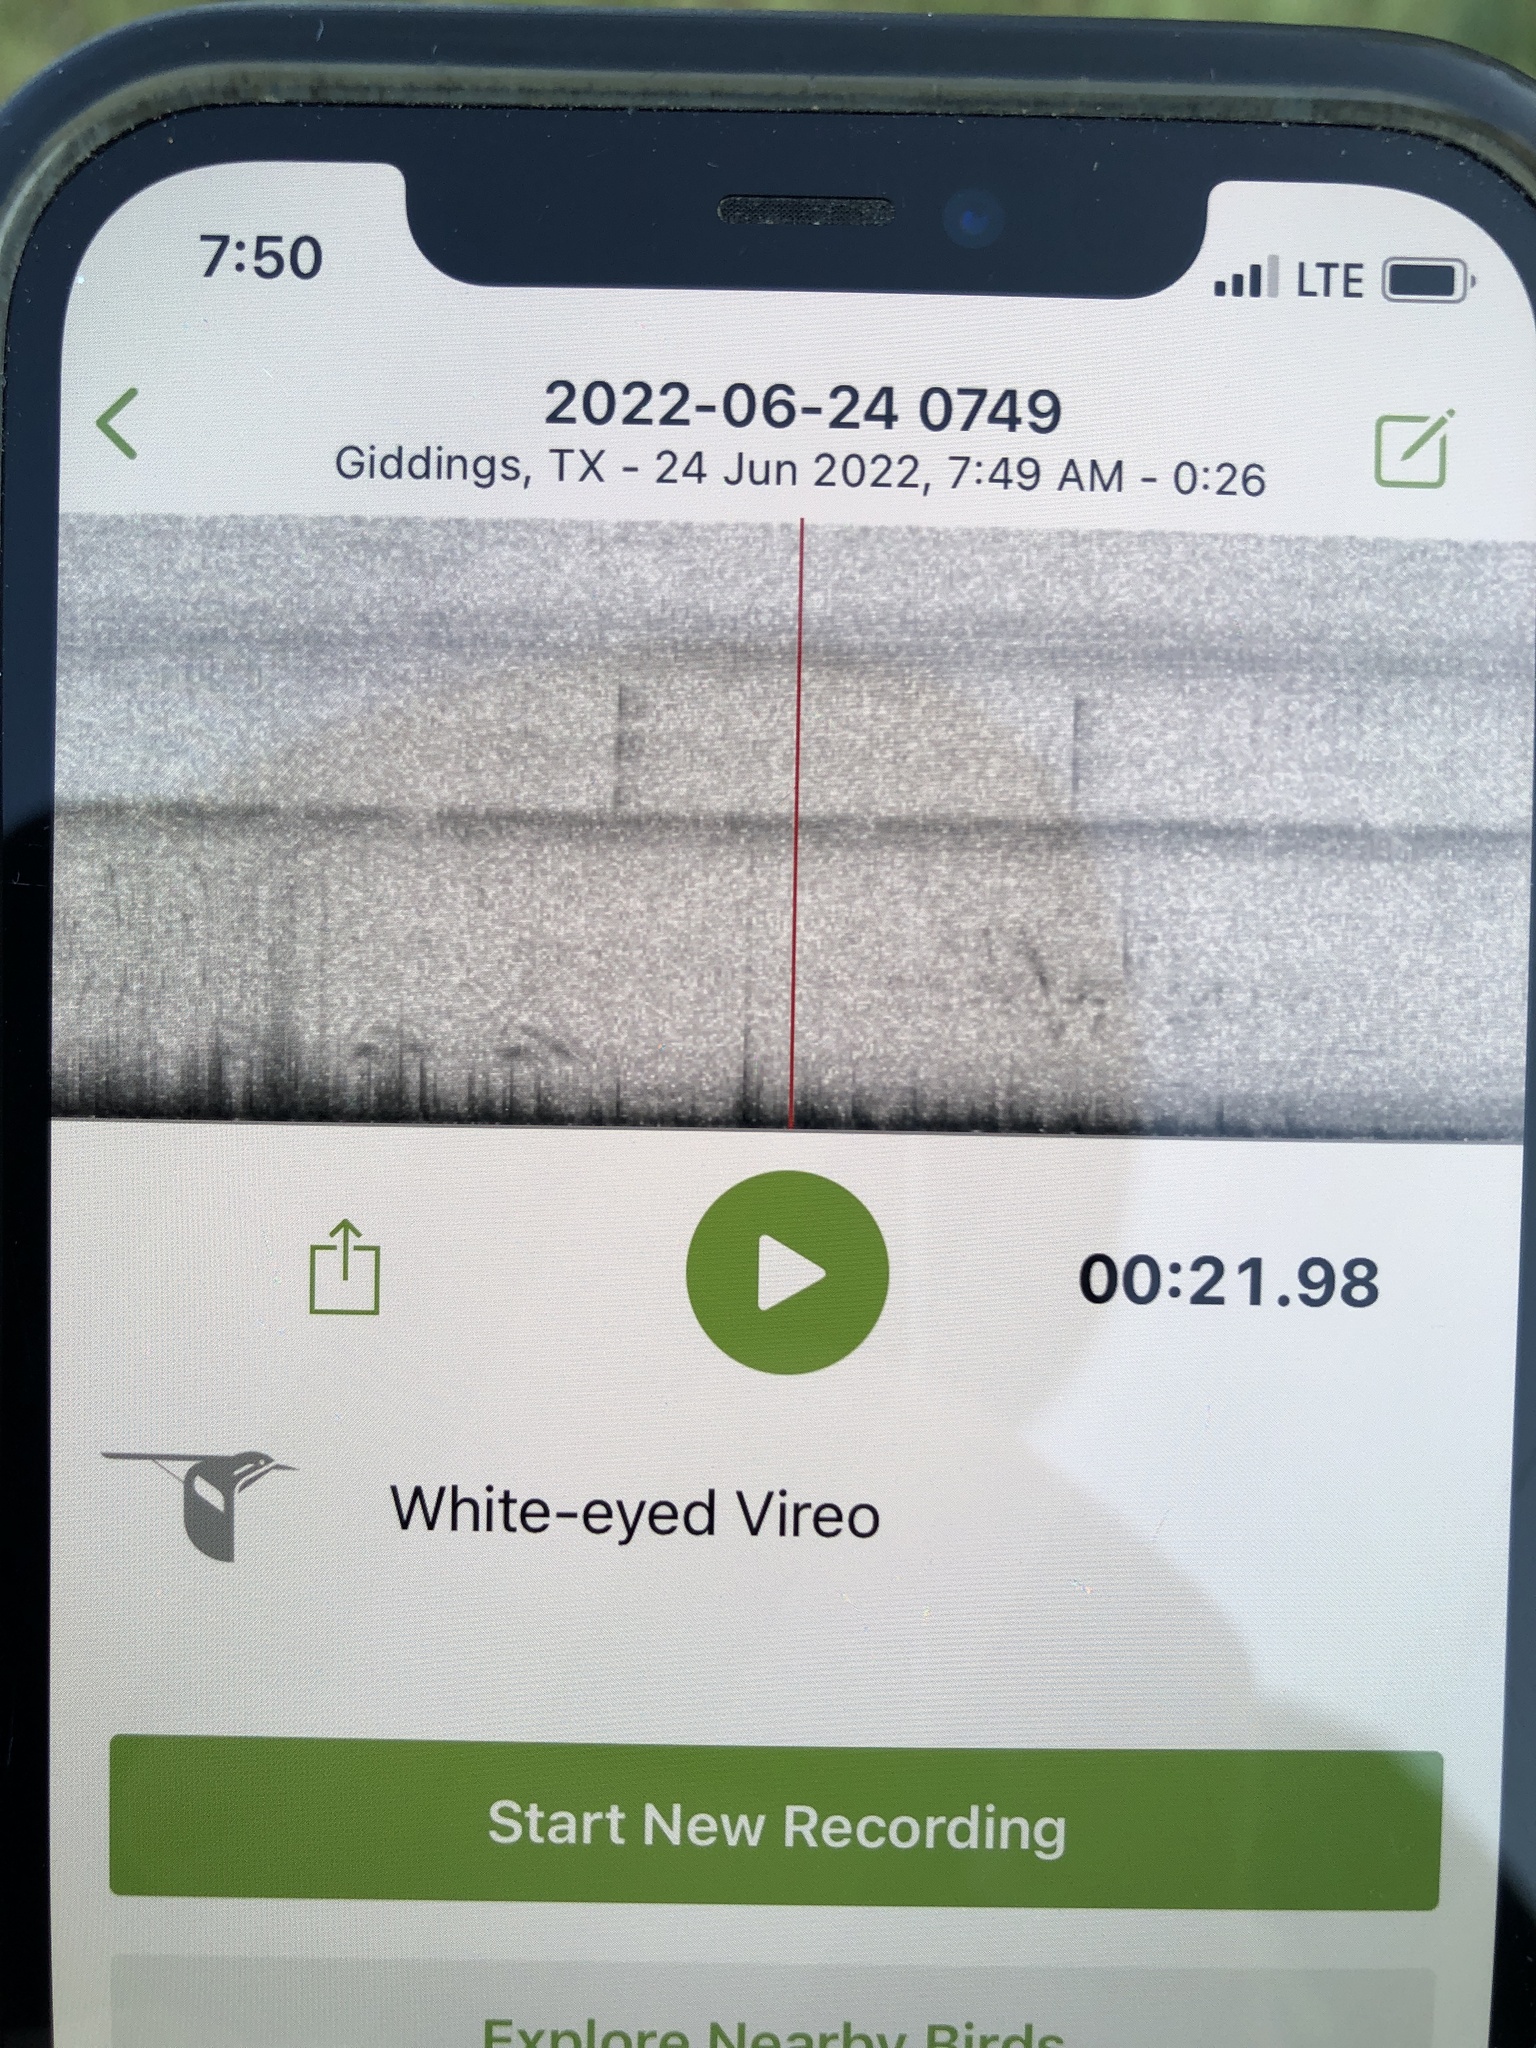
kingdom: Animalia
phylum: Chordata
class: Aves
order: Passeriformes
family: Vireonidae
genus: Vireo
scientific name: Vireo griseus
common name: White-eyed vireo
